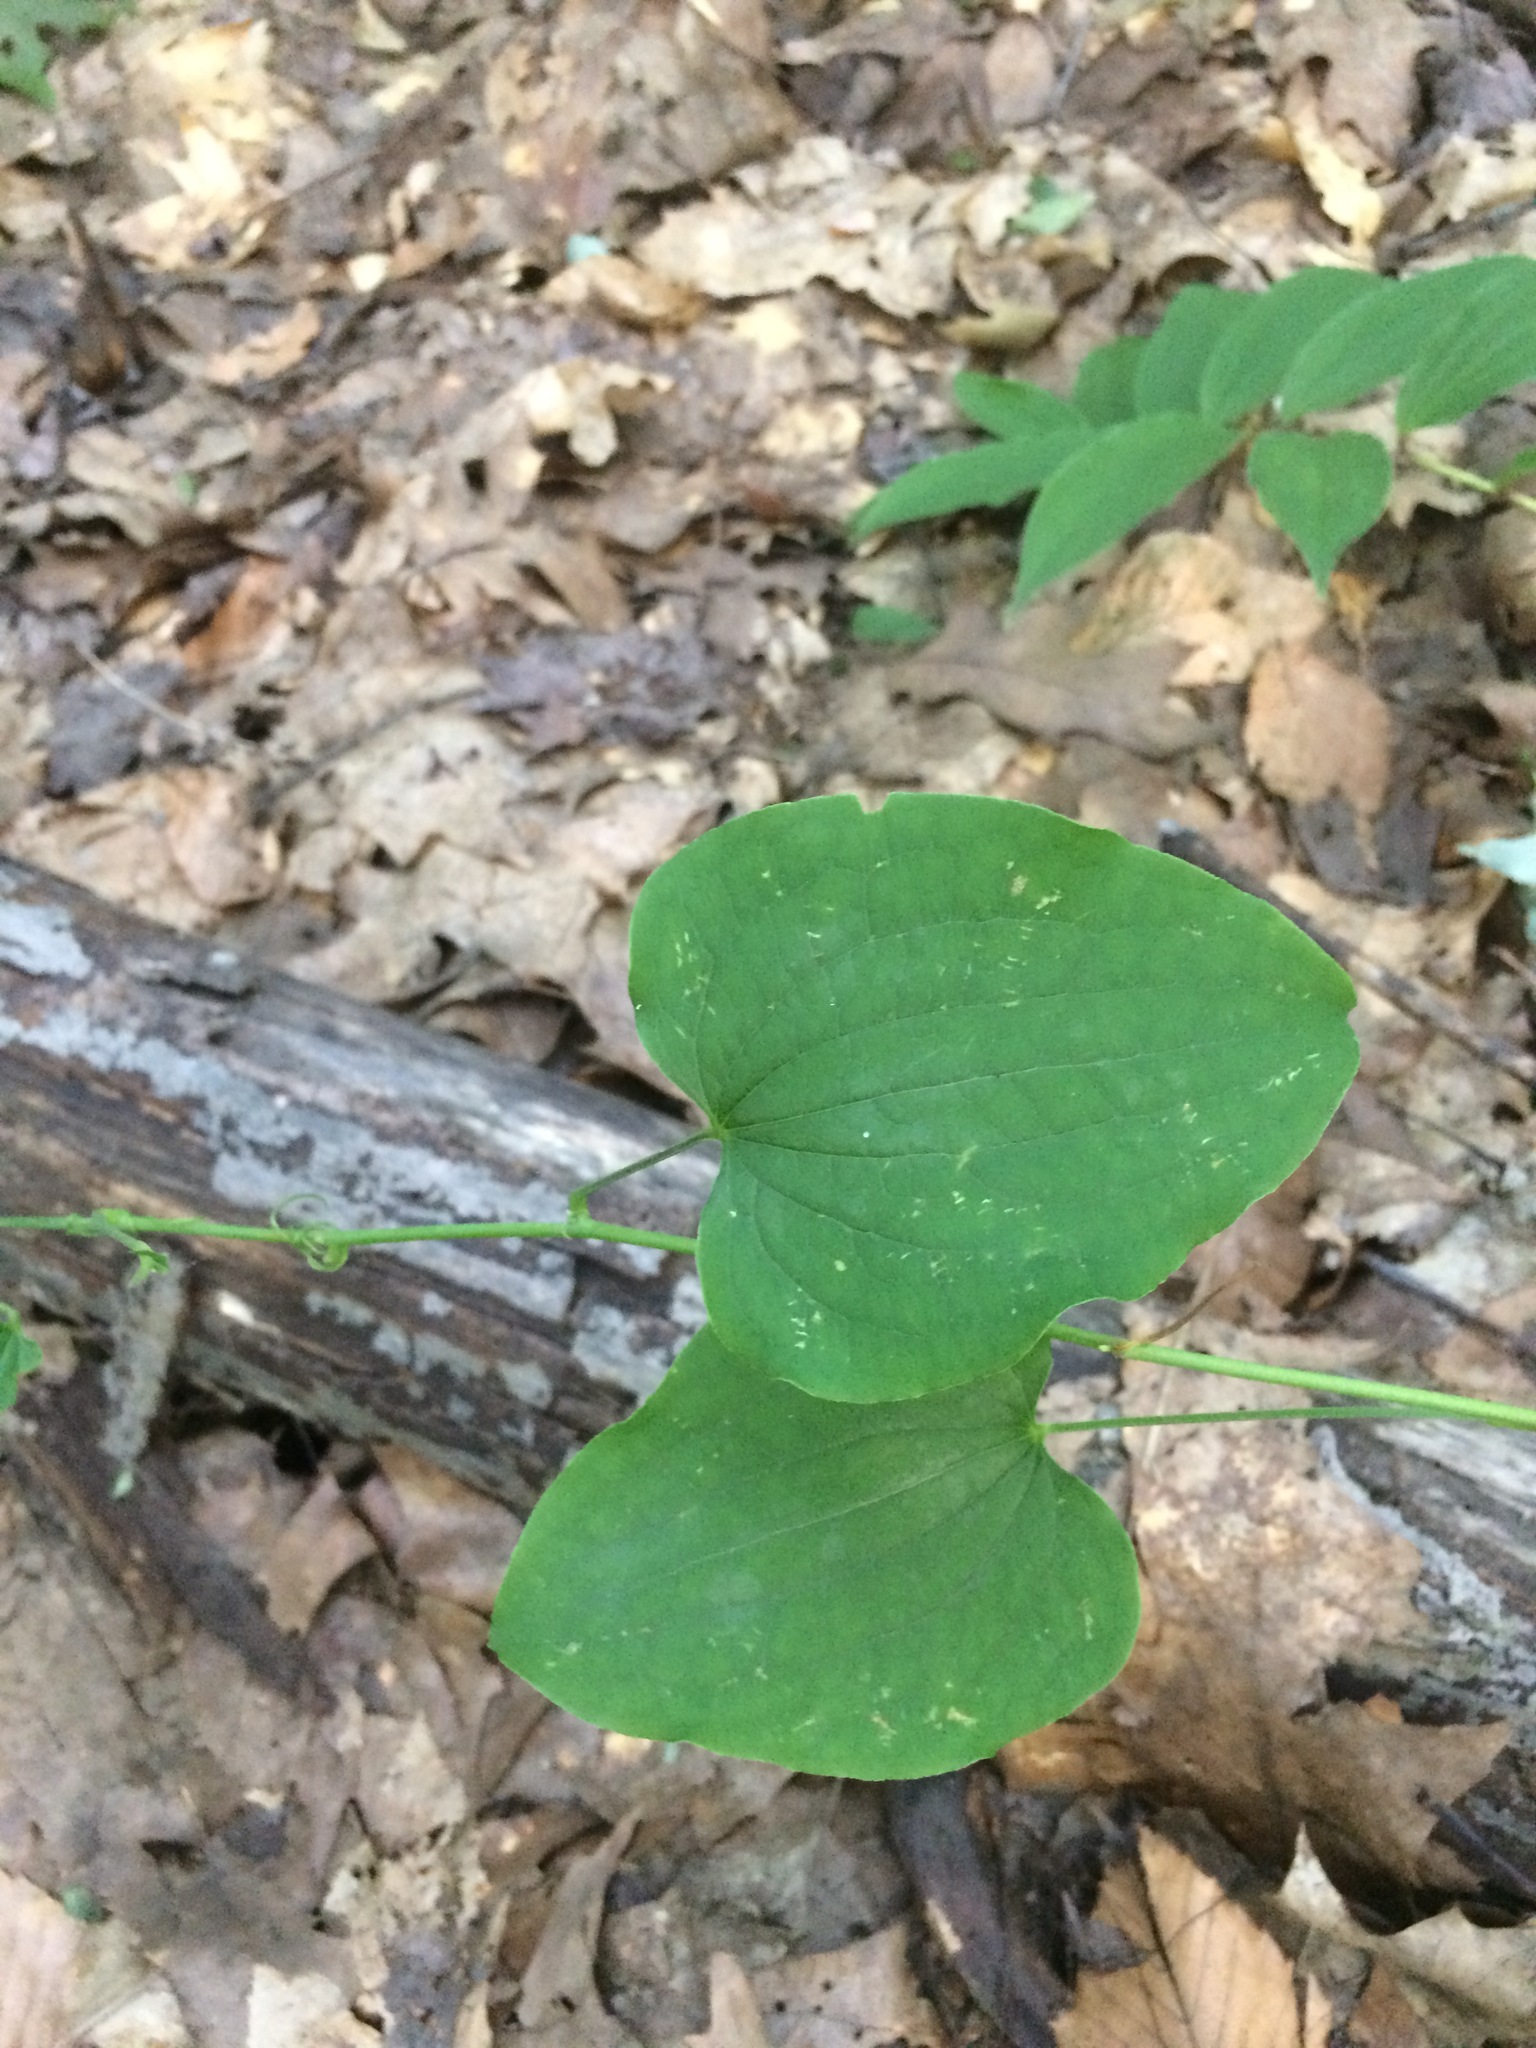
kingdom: Plantae
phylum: Tracheophyta
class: Liliopsida
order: Liliales
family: Smilacaceae
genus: Smilax
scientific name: Smilax herbacea
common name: Jacob's-ladder
